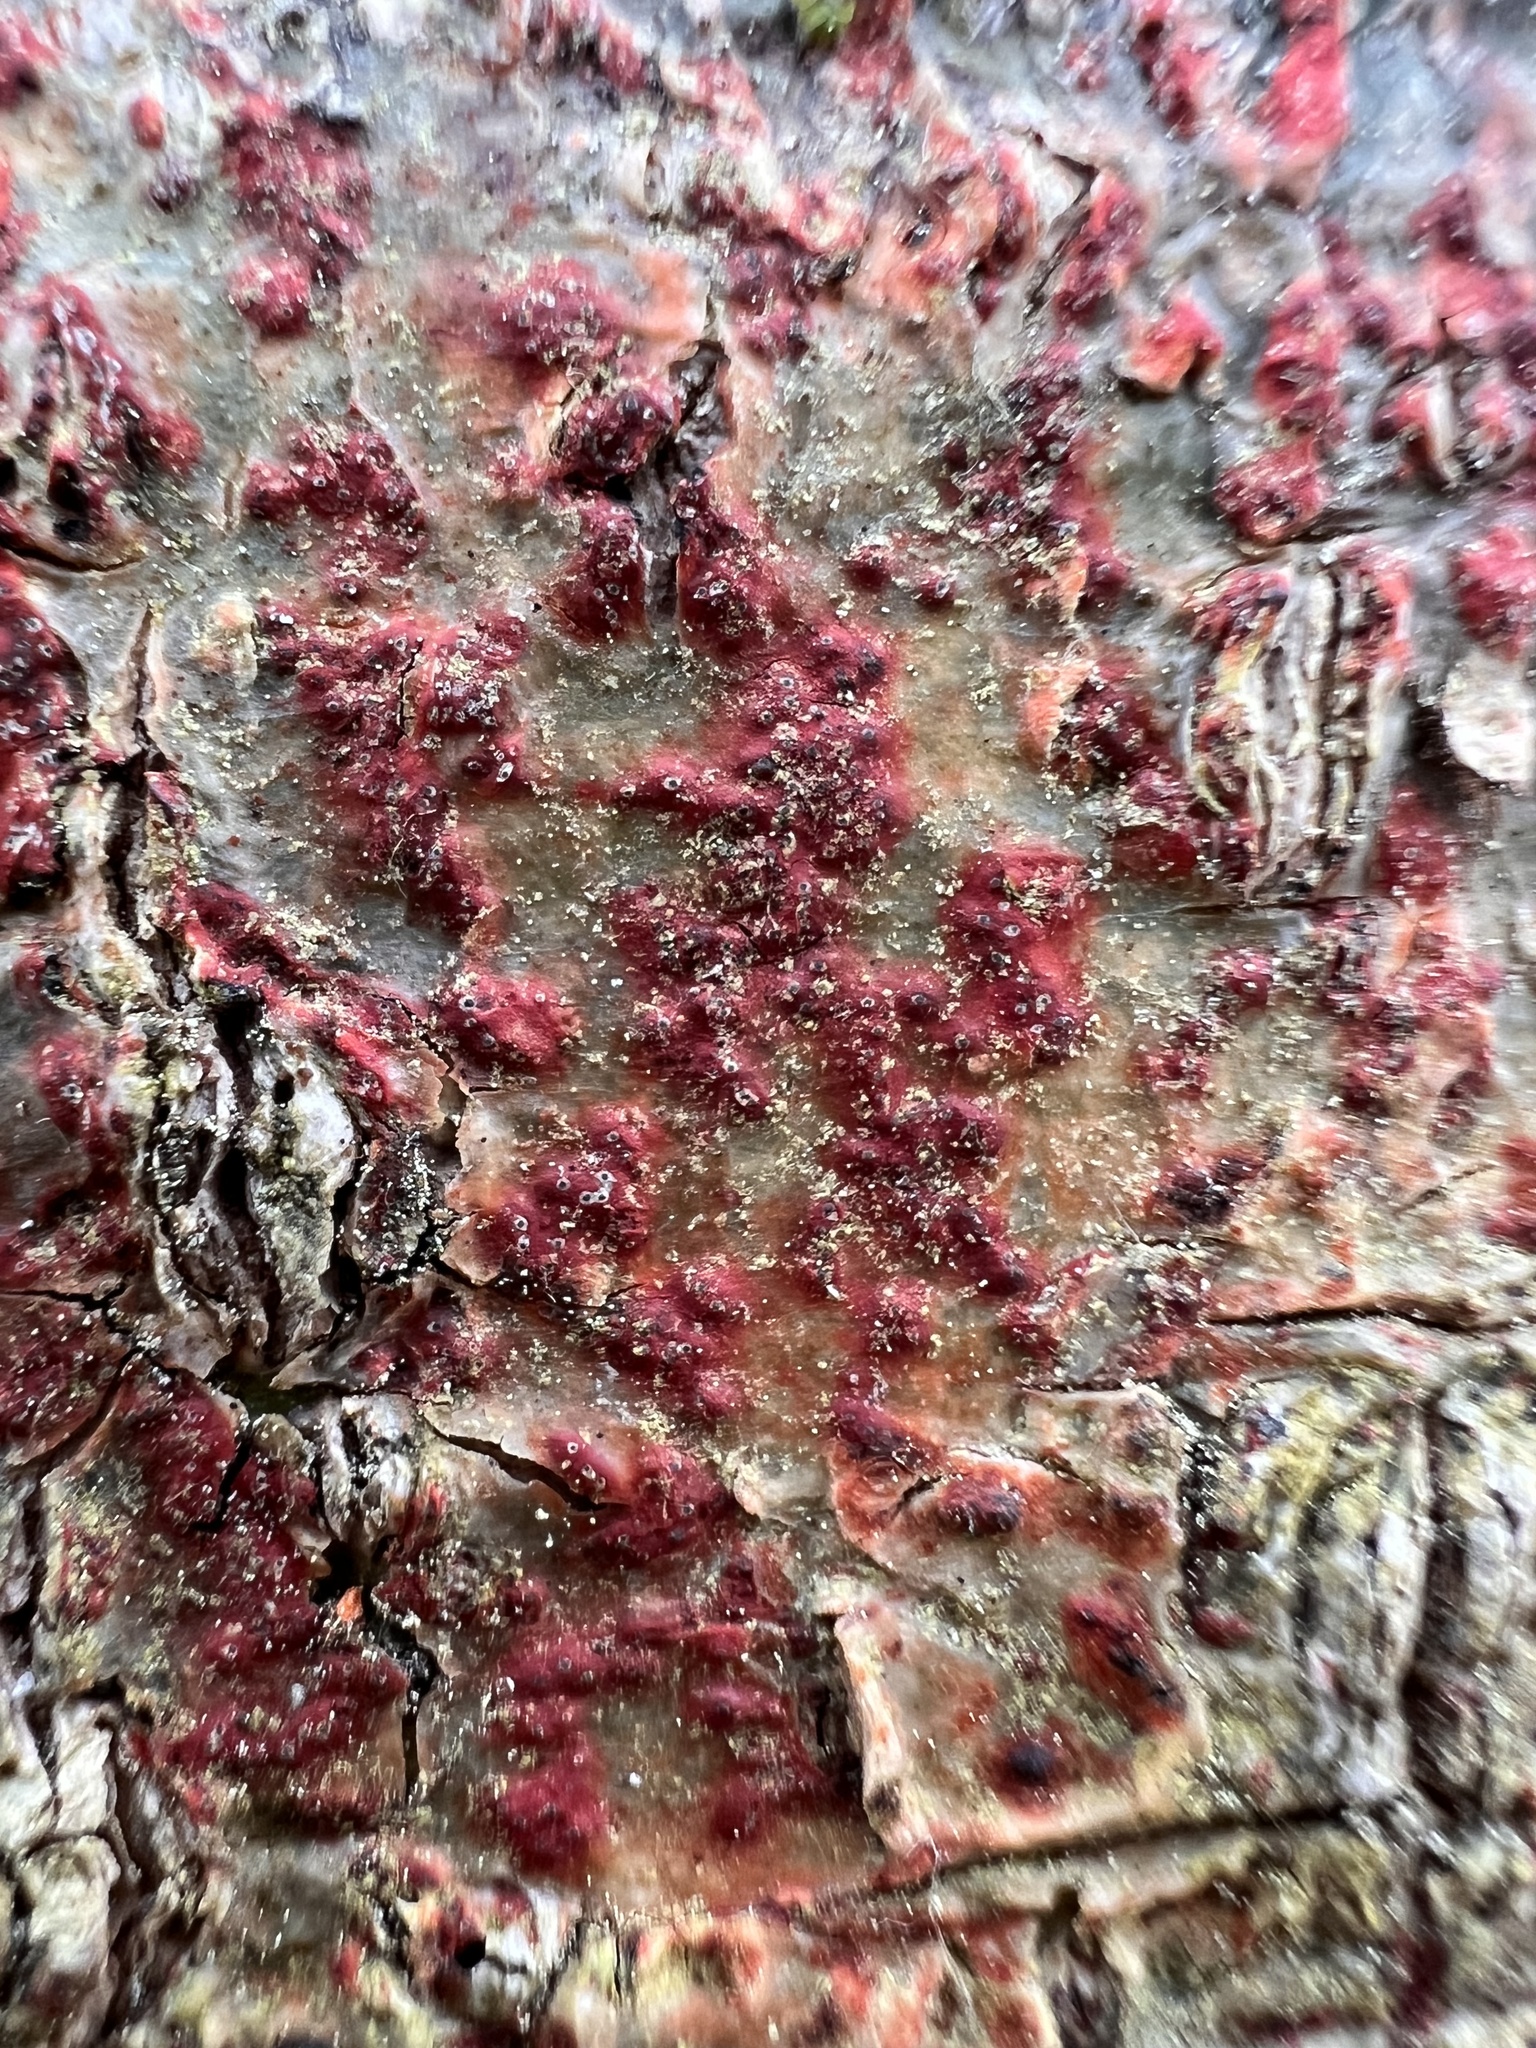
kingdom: Fungi
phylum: Ascomycota
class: Eurotiomycetes
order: Pyrenulales
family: Pyrenulaceae
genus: Pyrenula
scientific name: Pyrenula cruenta
